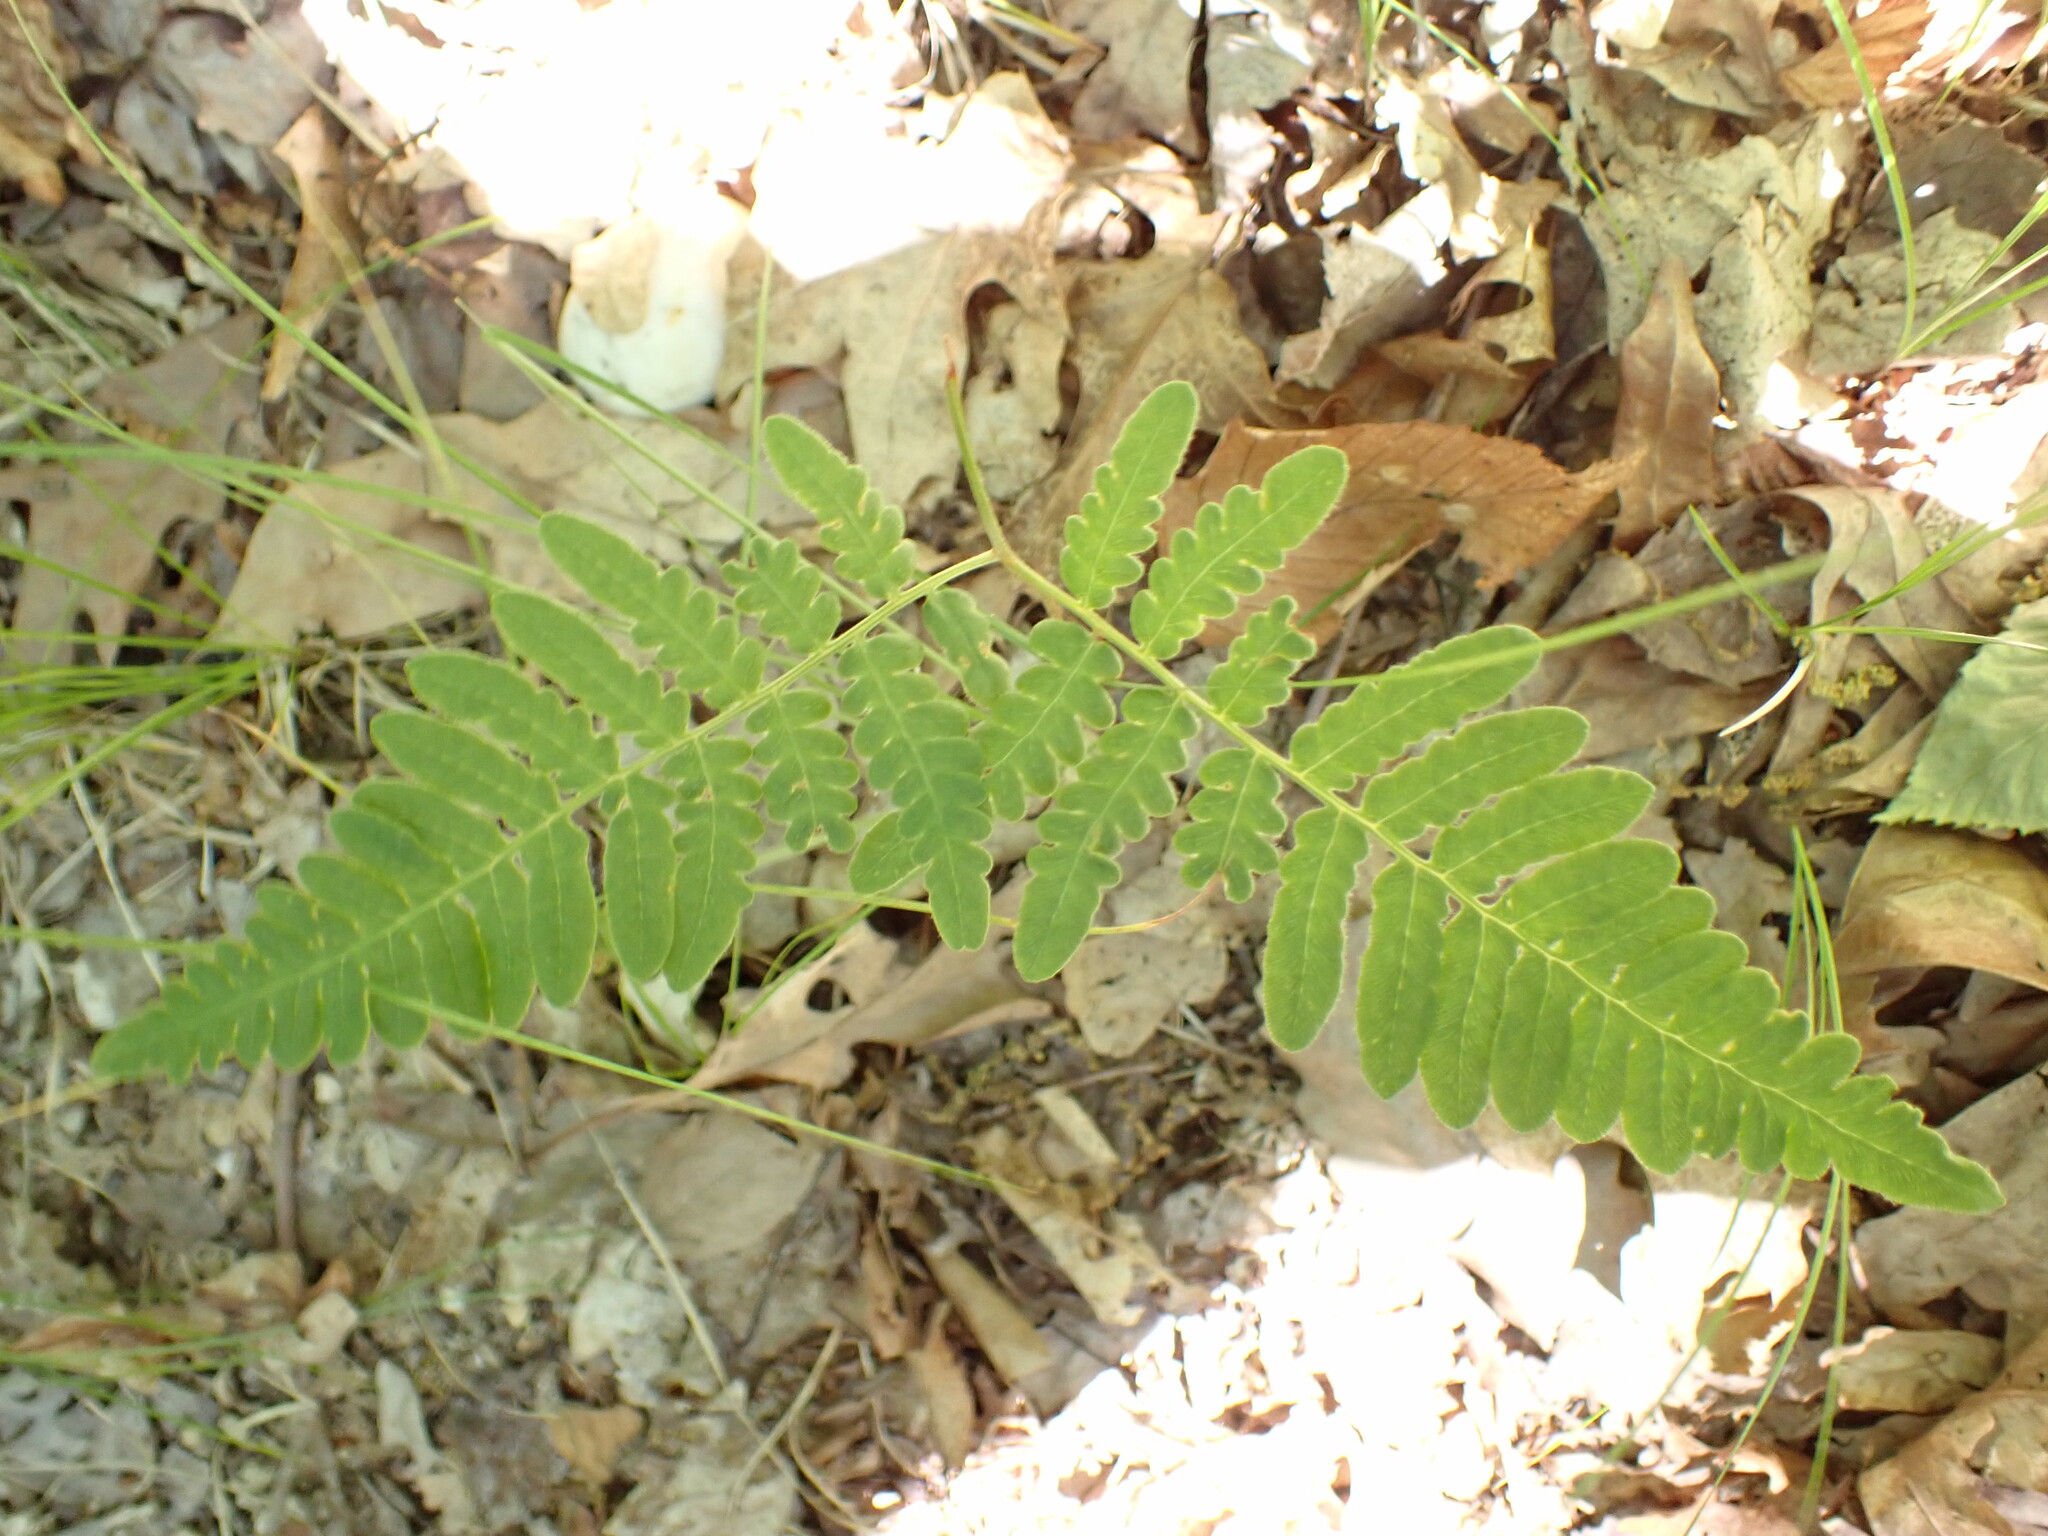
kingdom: Plantae
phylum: Tracheophyta
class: Polypodiopsida
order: Polypodiales
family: Dennstaedtiaceae
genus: Pteridium
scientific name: Pteridium aquilinum
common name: Bracken
